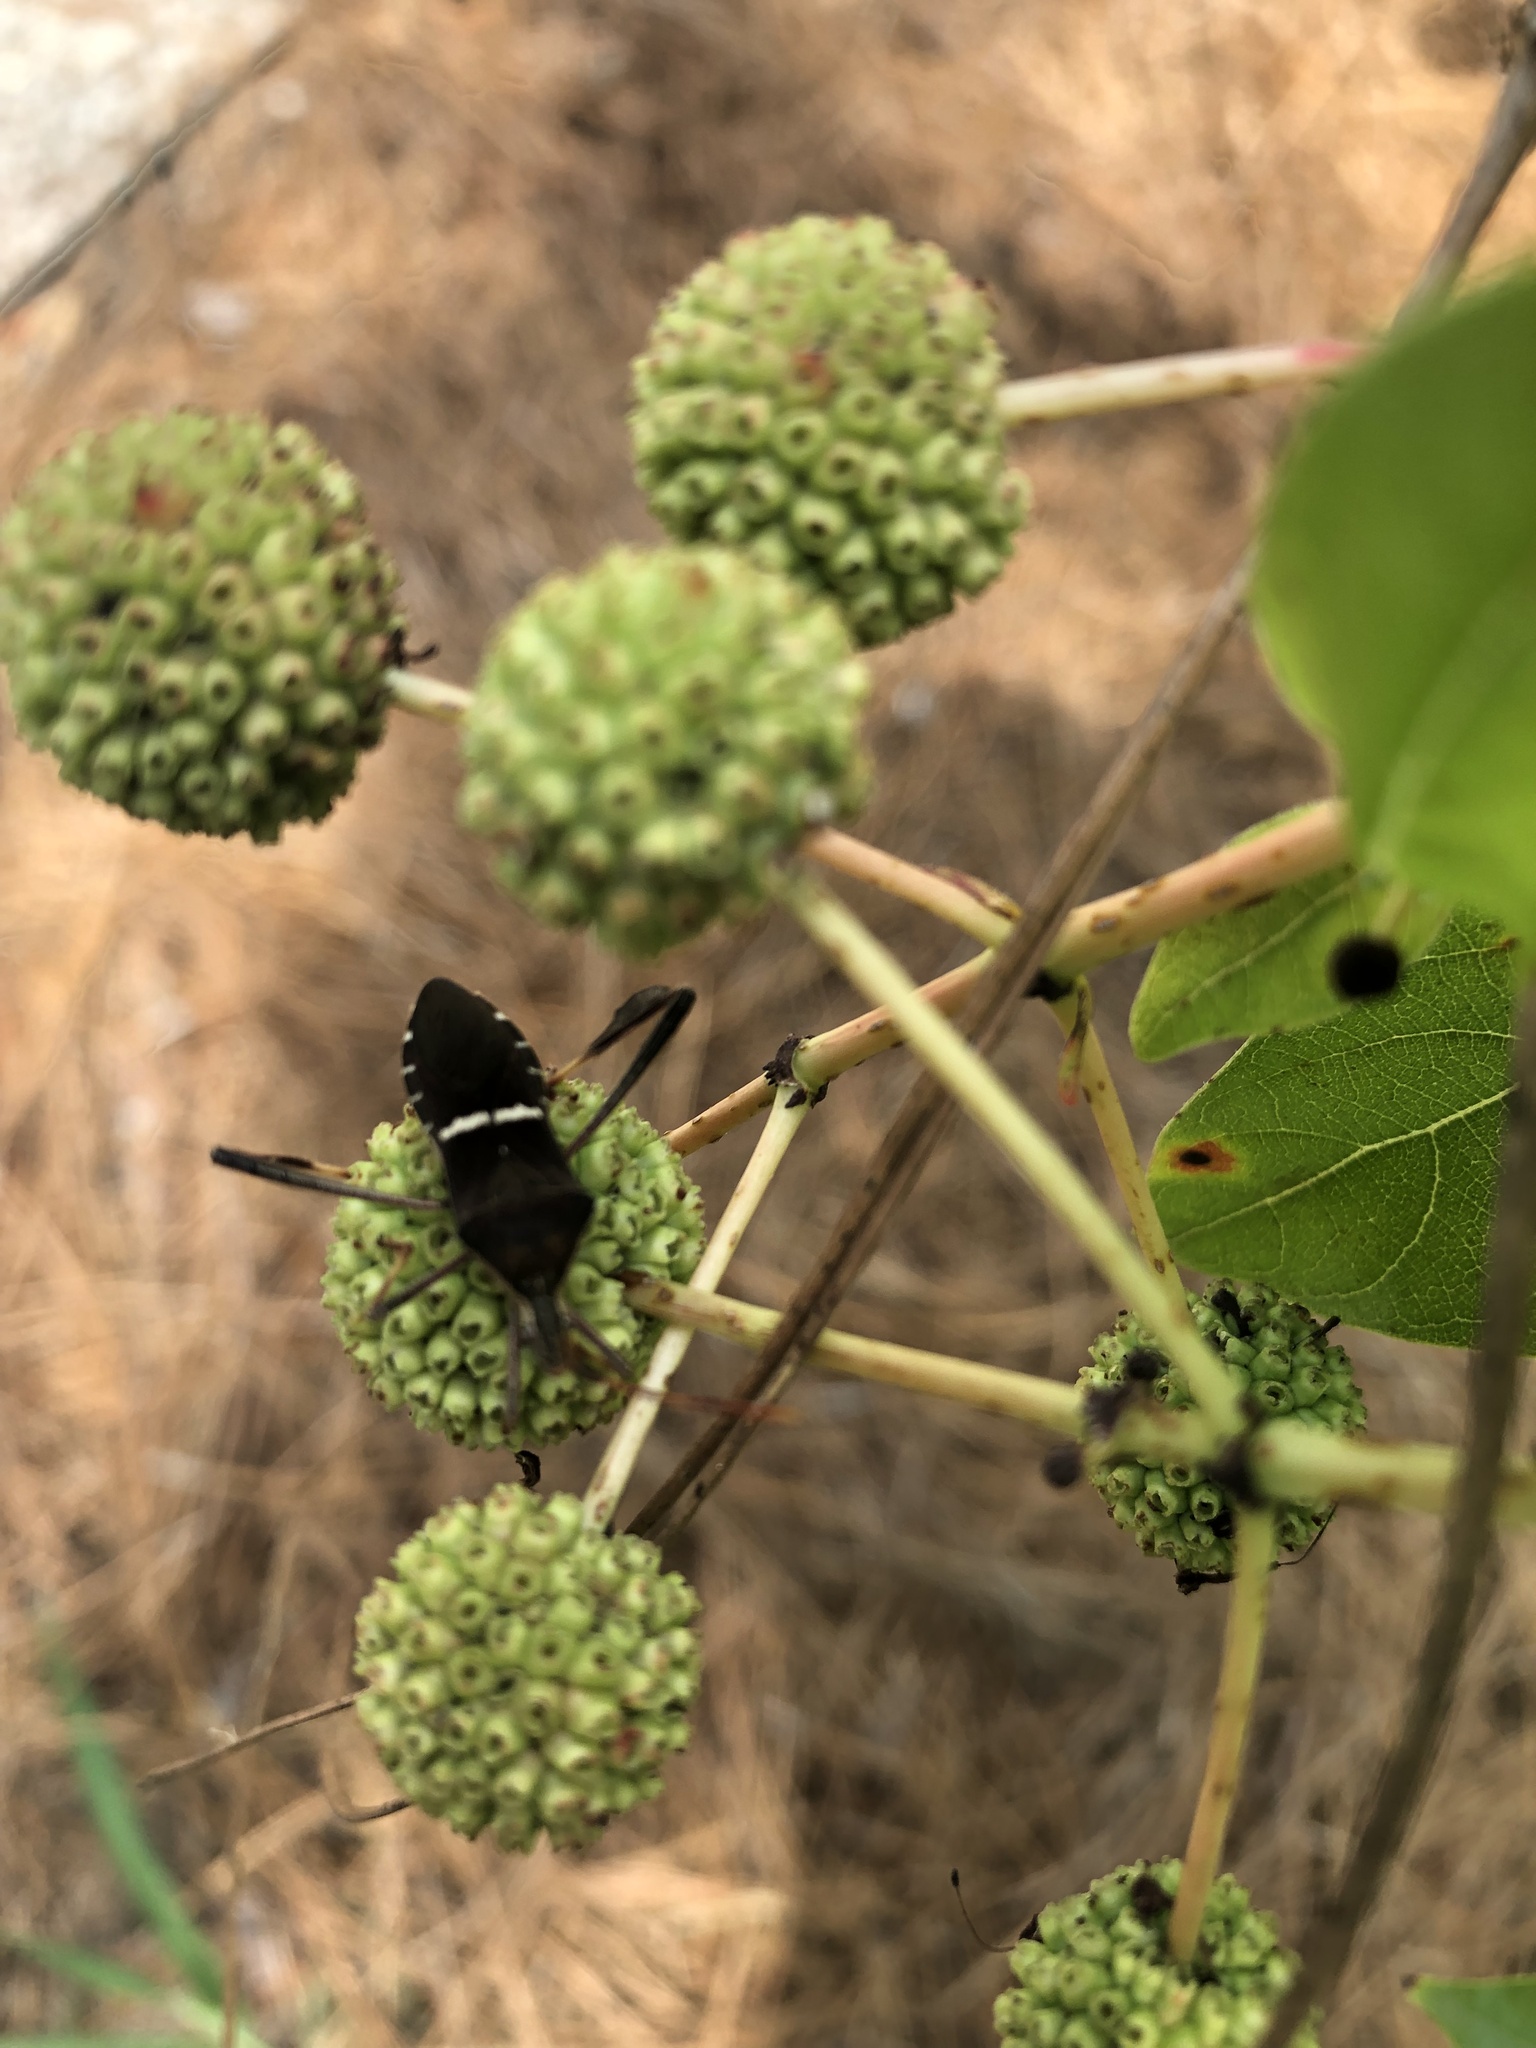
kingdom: Animalia
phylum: Arthropoda
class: Insecta
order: Hemiptera
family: Coreidae
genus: Leptoglossus
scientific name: Leptoglossus phyllopus
